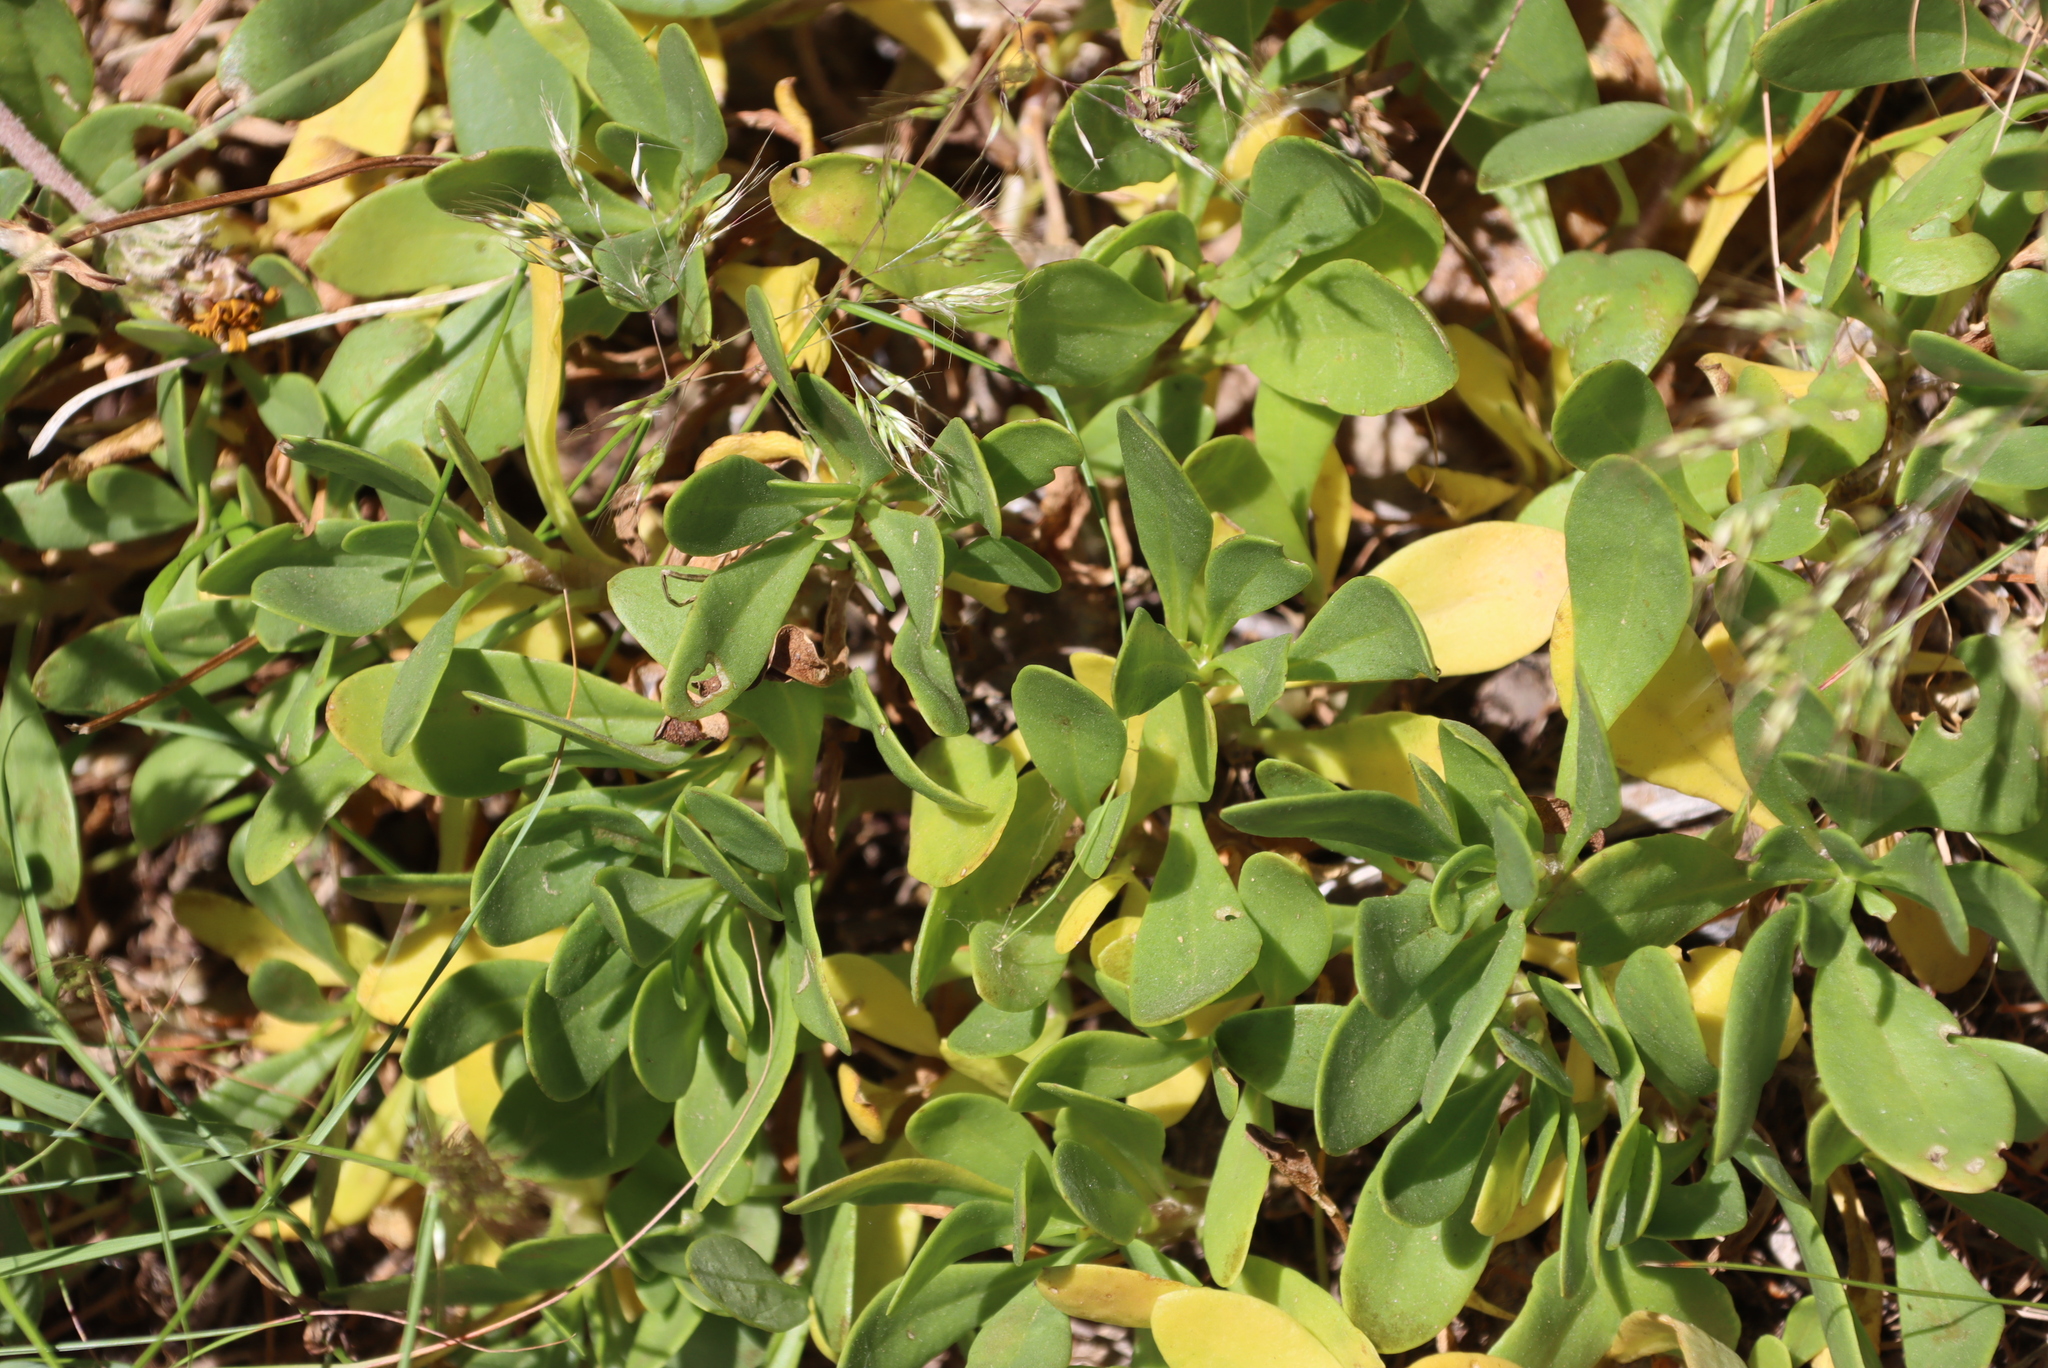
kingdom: Plantae
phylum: Tracheophyta
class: Magnoliopsida
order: Asterales
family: Asteraceae
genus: Othonna
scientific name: Othonna arborescens
